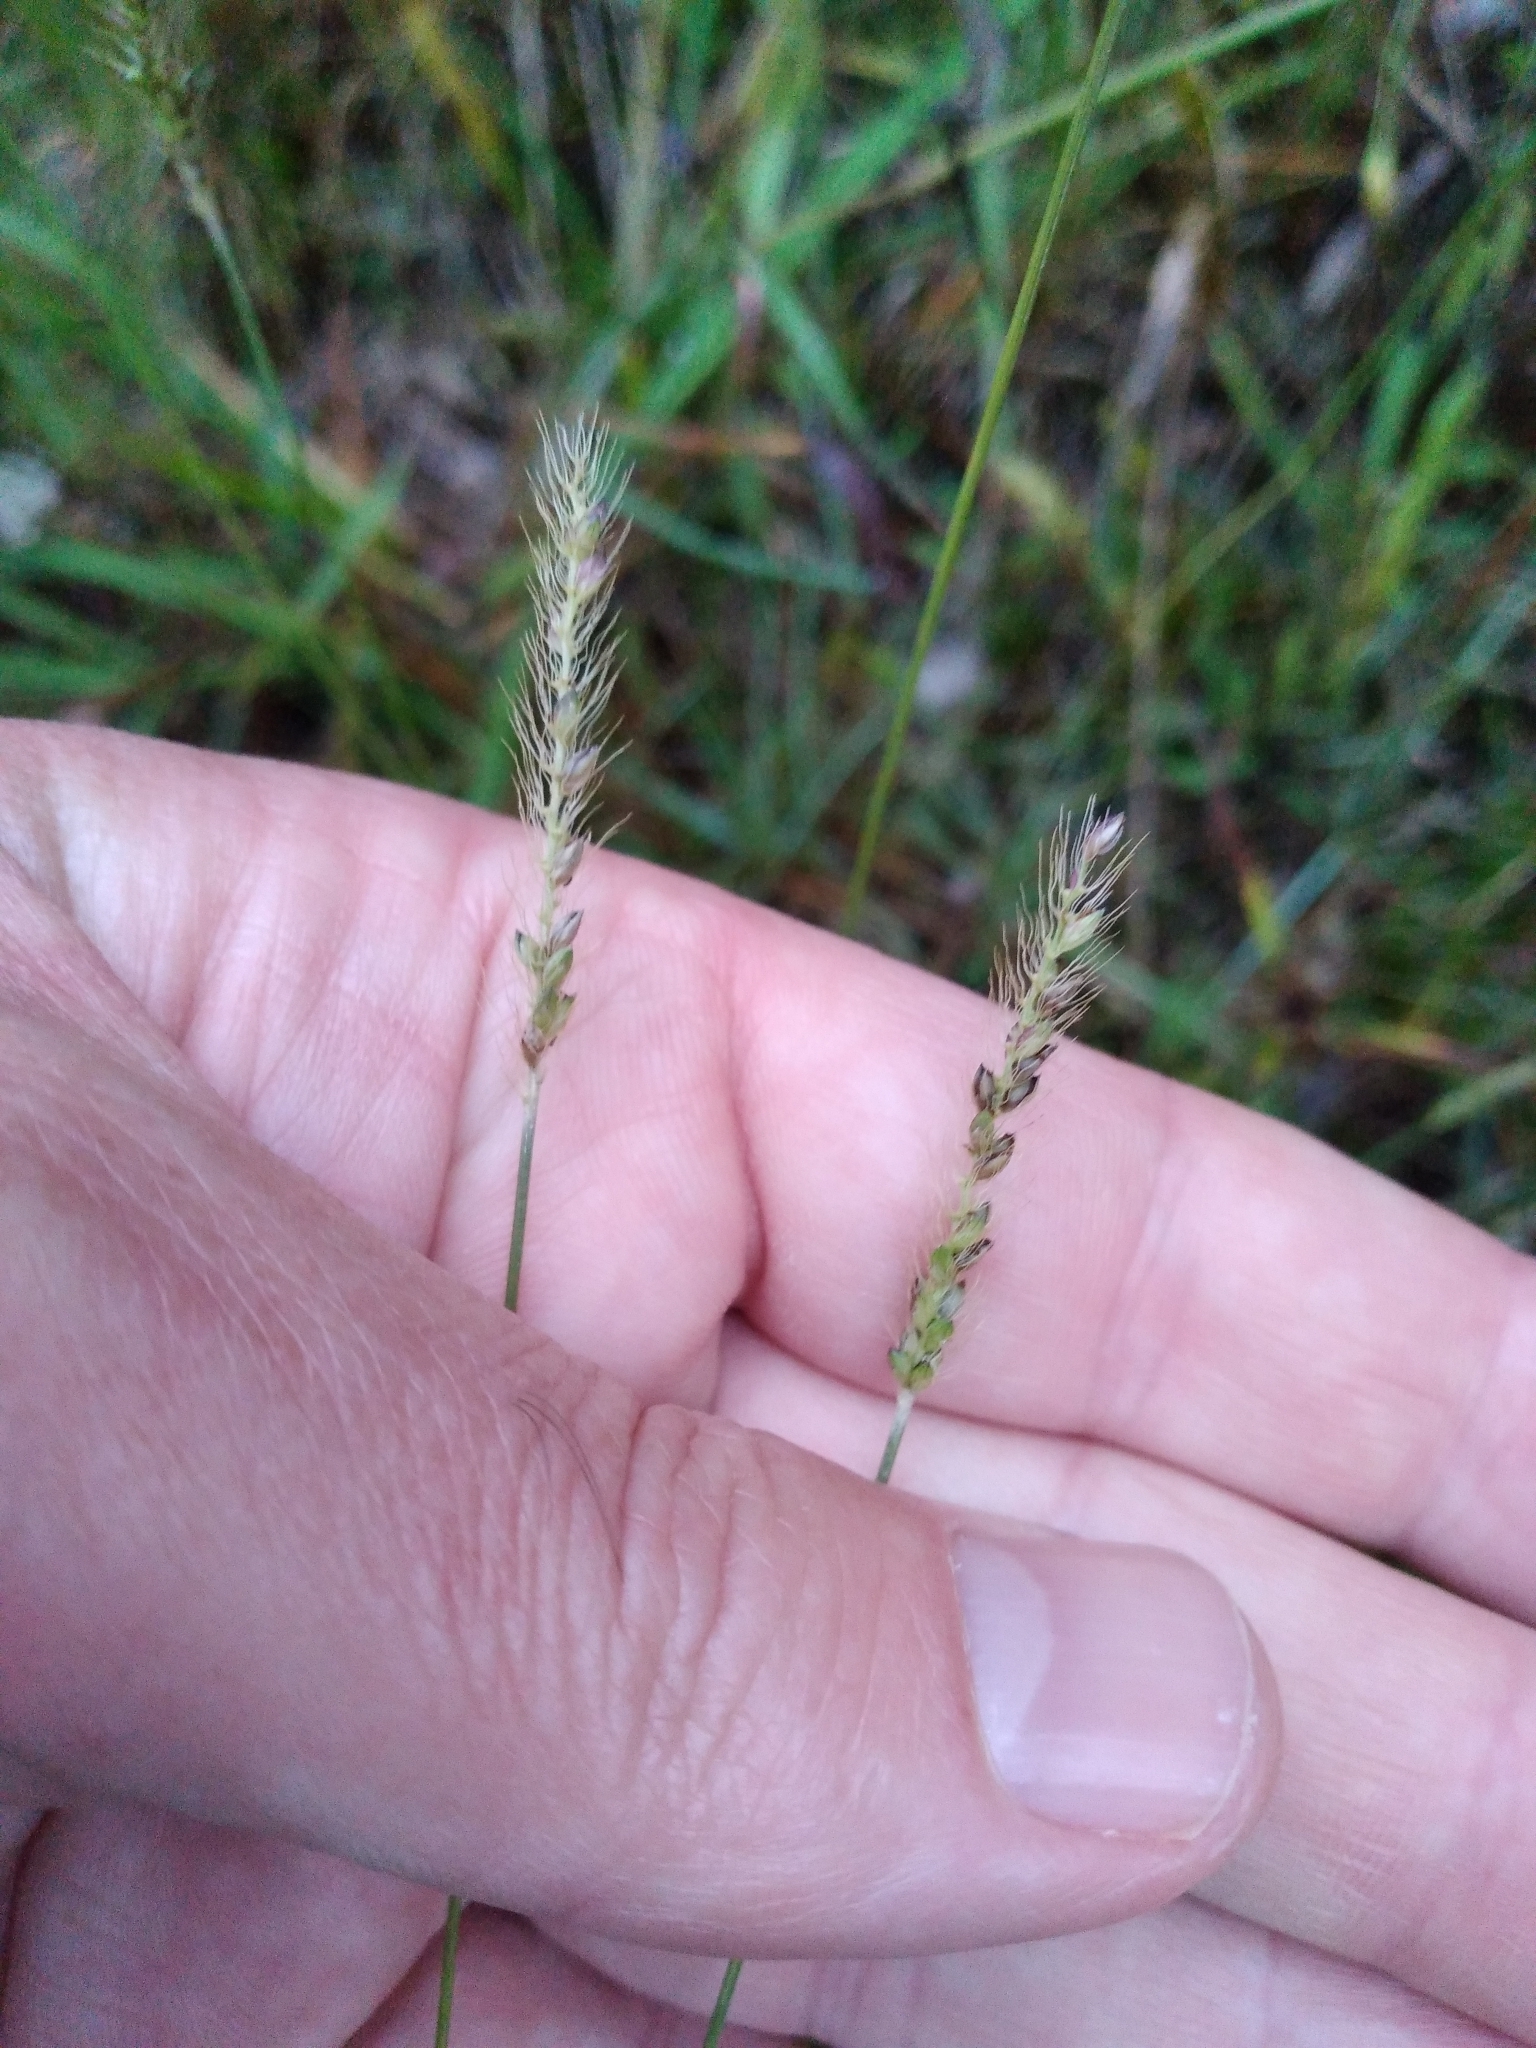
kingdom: Plantae
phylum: Tracheophyta
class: Liliopsida
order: Poales
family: Poaceae
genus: Setaria
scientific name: Setaria parviflora
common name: Knotroot bristle-grass
